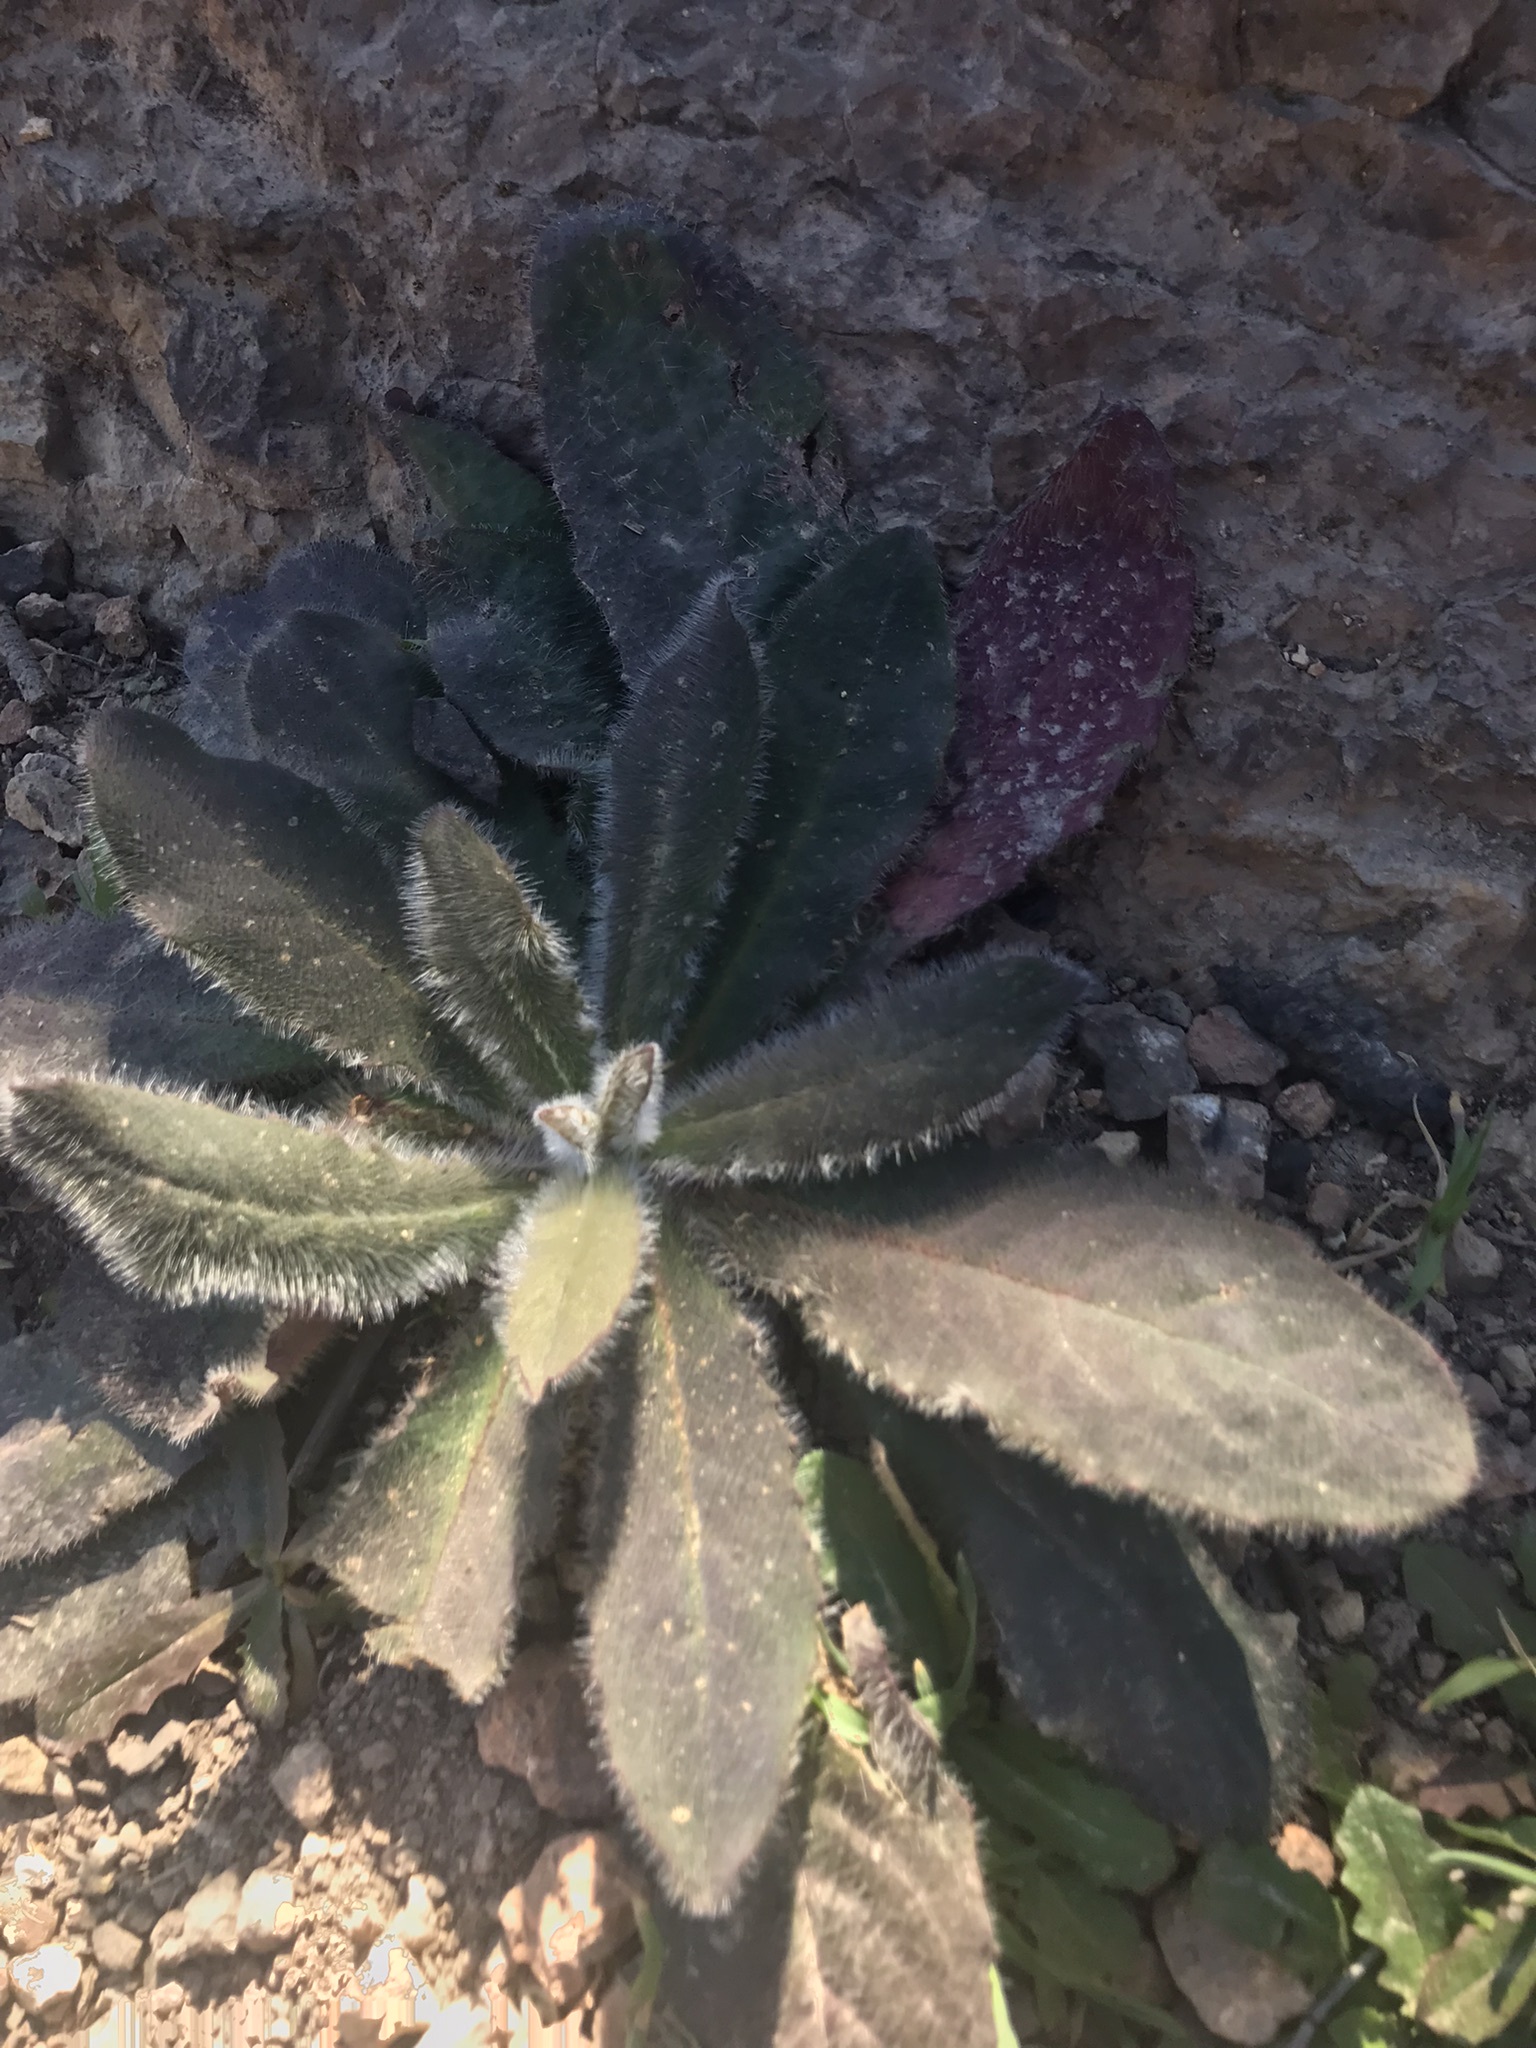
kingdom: Plantae
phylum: Tracheophyta
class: Magnoliopsida
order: Asterales
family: Asteraceae
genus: Hieracium
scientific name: Hieracium albiflorum
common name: White hawkweed
